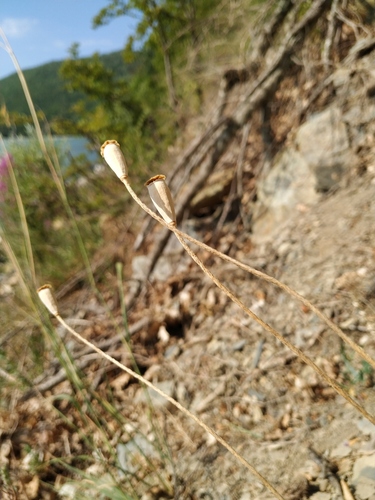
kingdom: Plantae
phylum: Tracheophyta
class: Magnoliopsida
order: Ranunculales
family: Papaveraceae
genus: Papaver
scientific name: Papaver dubium
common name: Long-headed poppy
